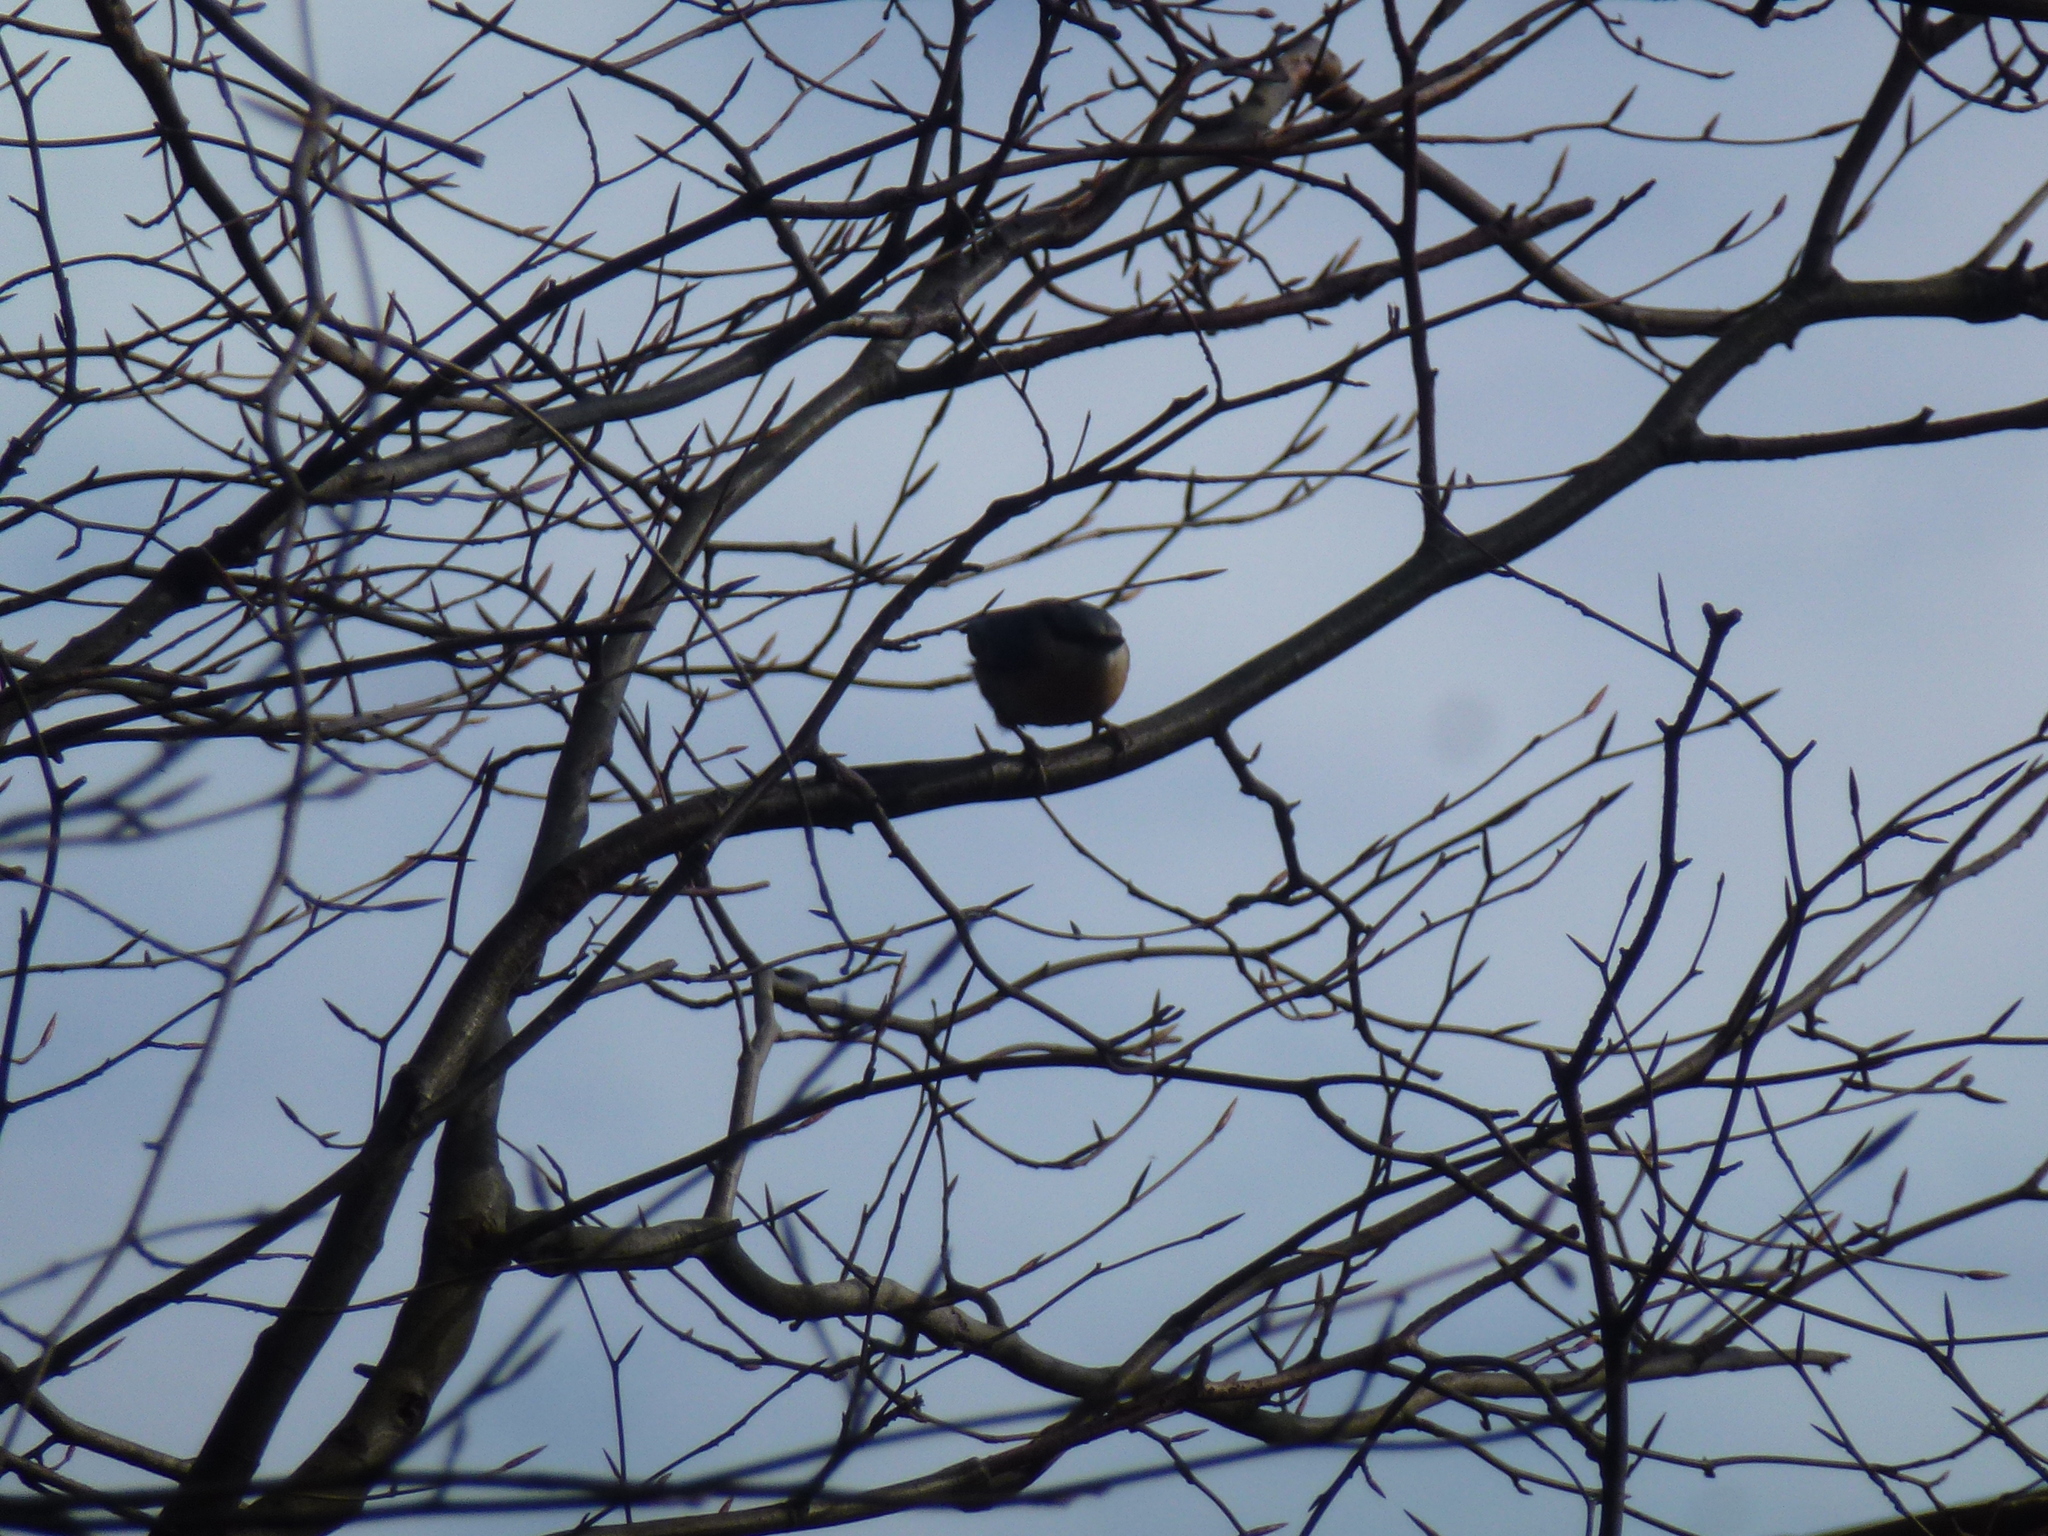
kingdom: Animalia
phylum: Chordata
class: Aves
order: Passeriformes
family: Sittidae
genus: Sitta
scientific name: Sitta europaea
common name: Eurasian nuthatch
